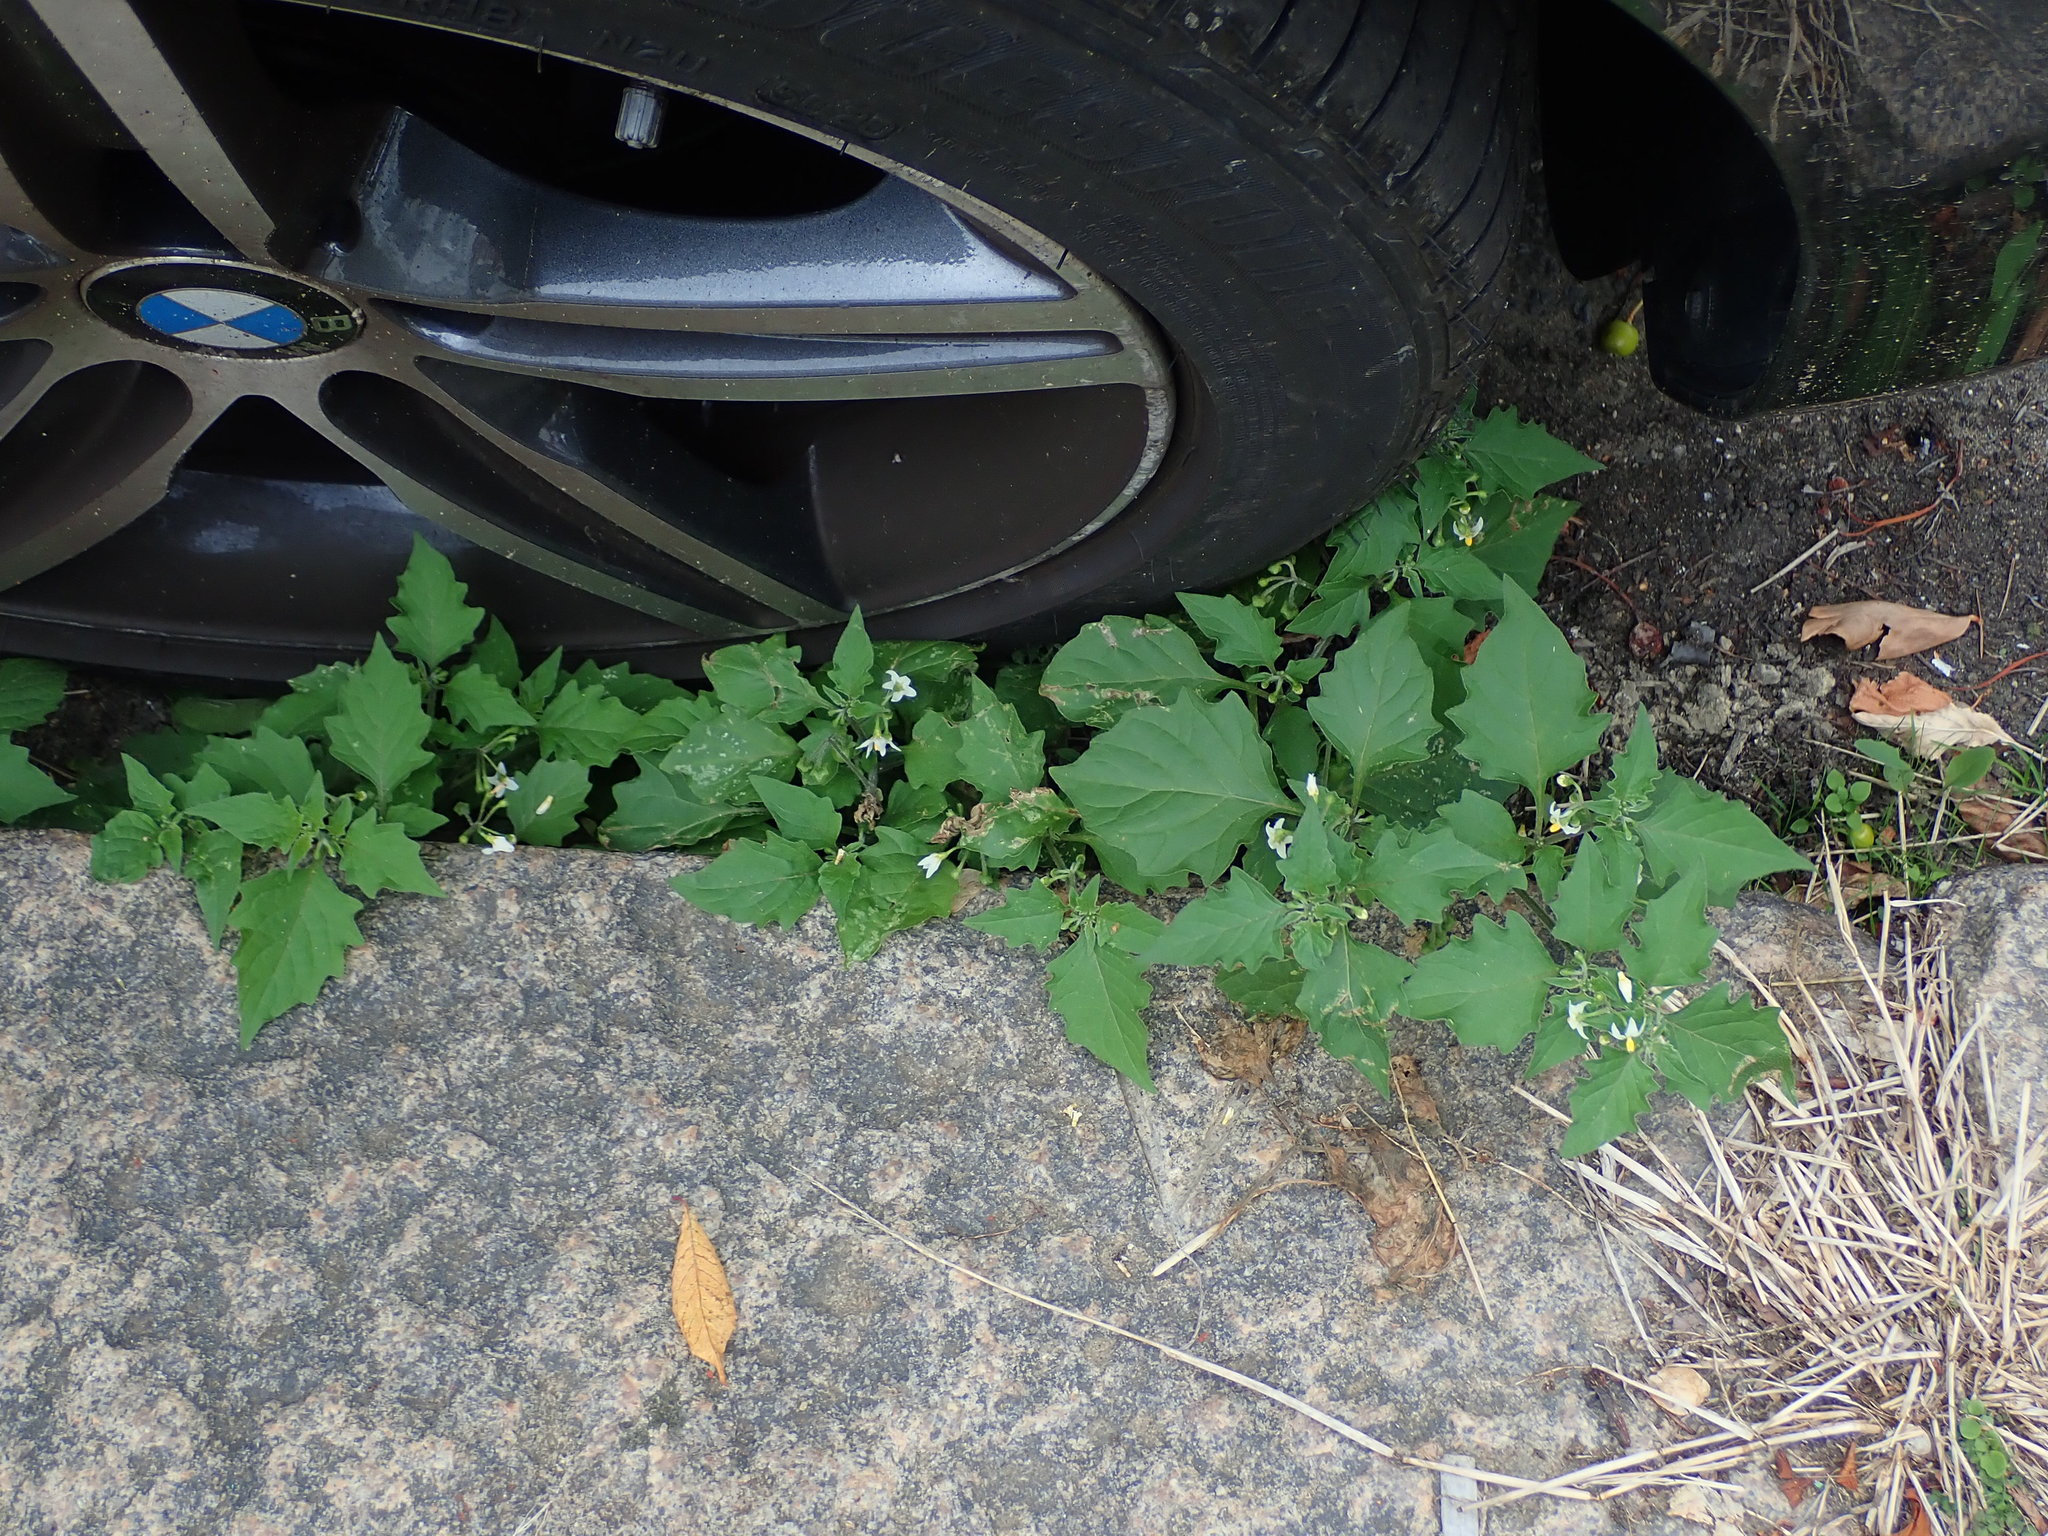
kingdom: Plantae
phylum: Tracheophyta
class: Magnoliopsida
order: Solanales
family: Solanaceae
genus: Solanum
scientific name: Solanum nigrum
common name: Black nightshade
